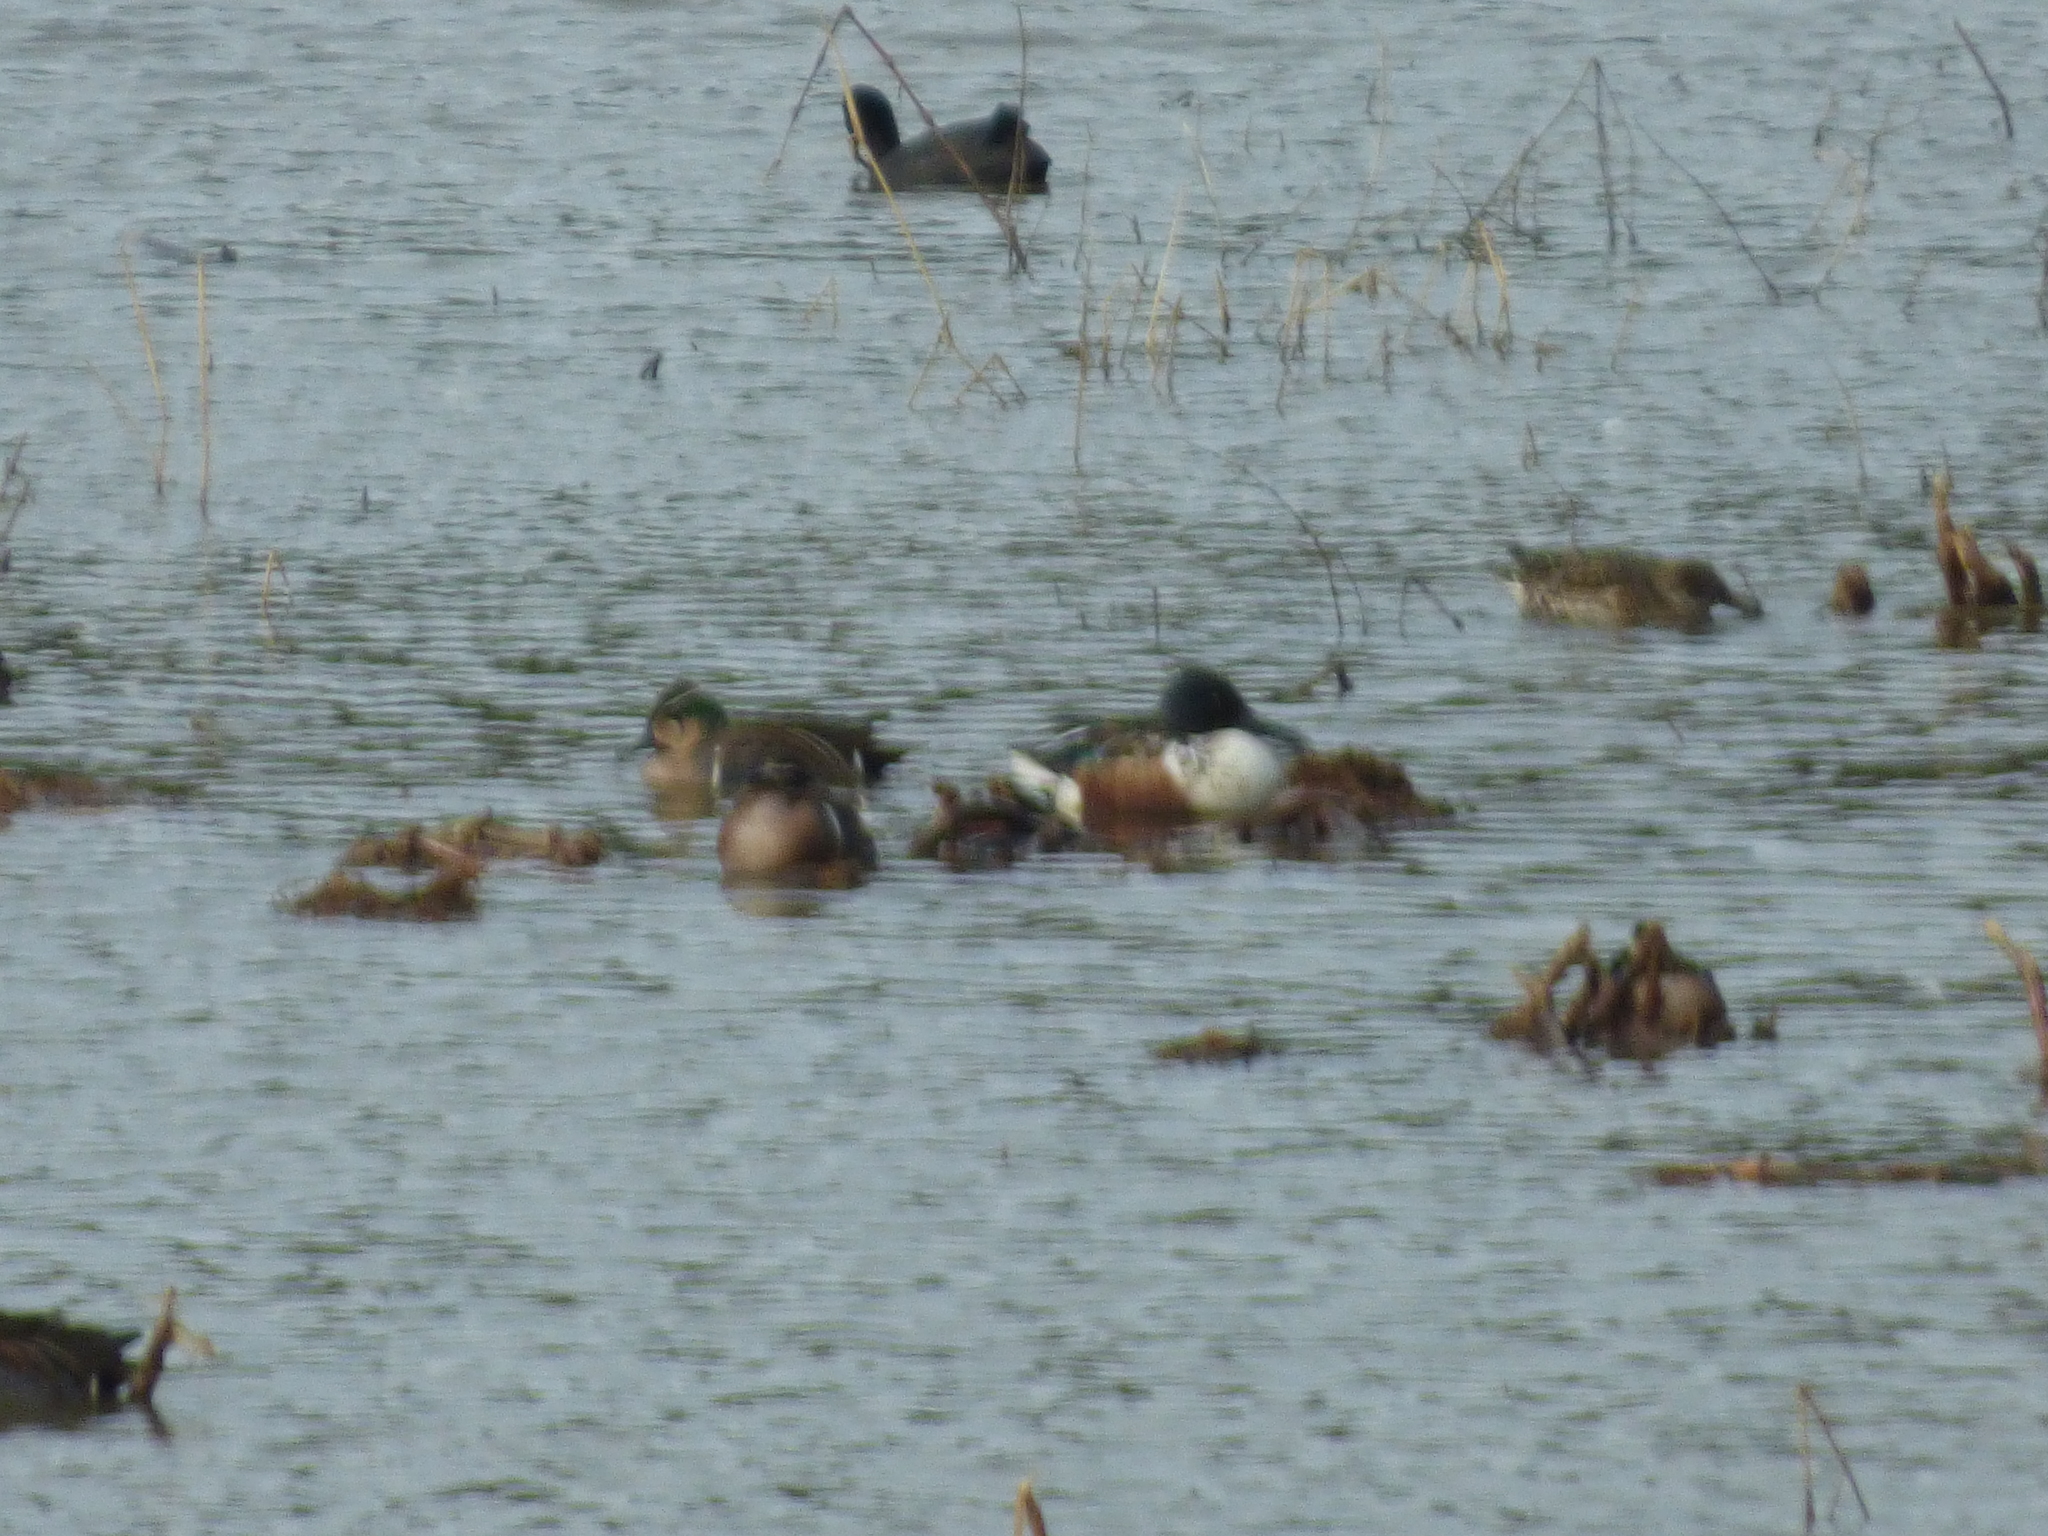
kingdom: Animalia
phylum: Chordata
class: Aves
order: Anseriformes
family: Anatidae
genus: Spatula
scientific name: Spatula clypeata
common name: Northern shoveler
